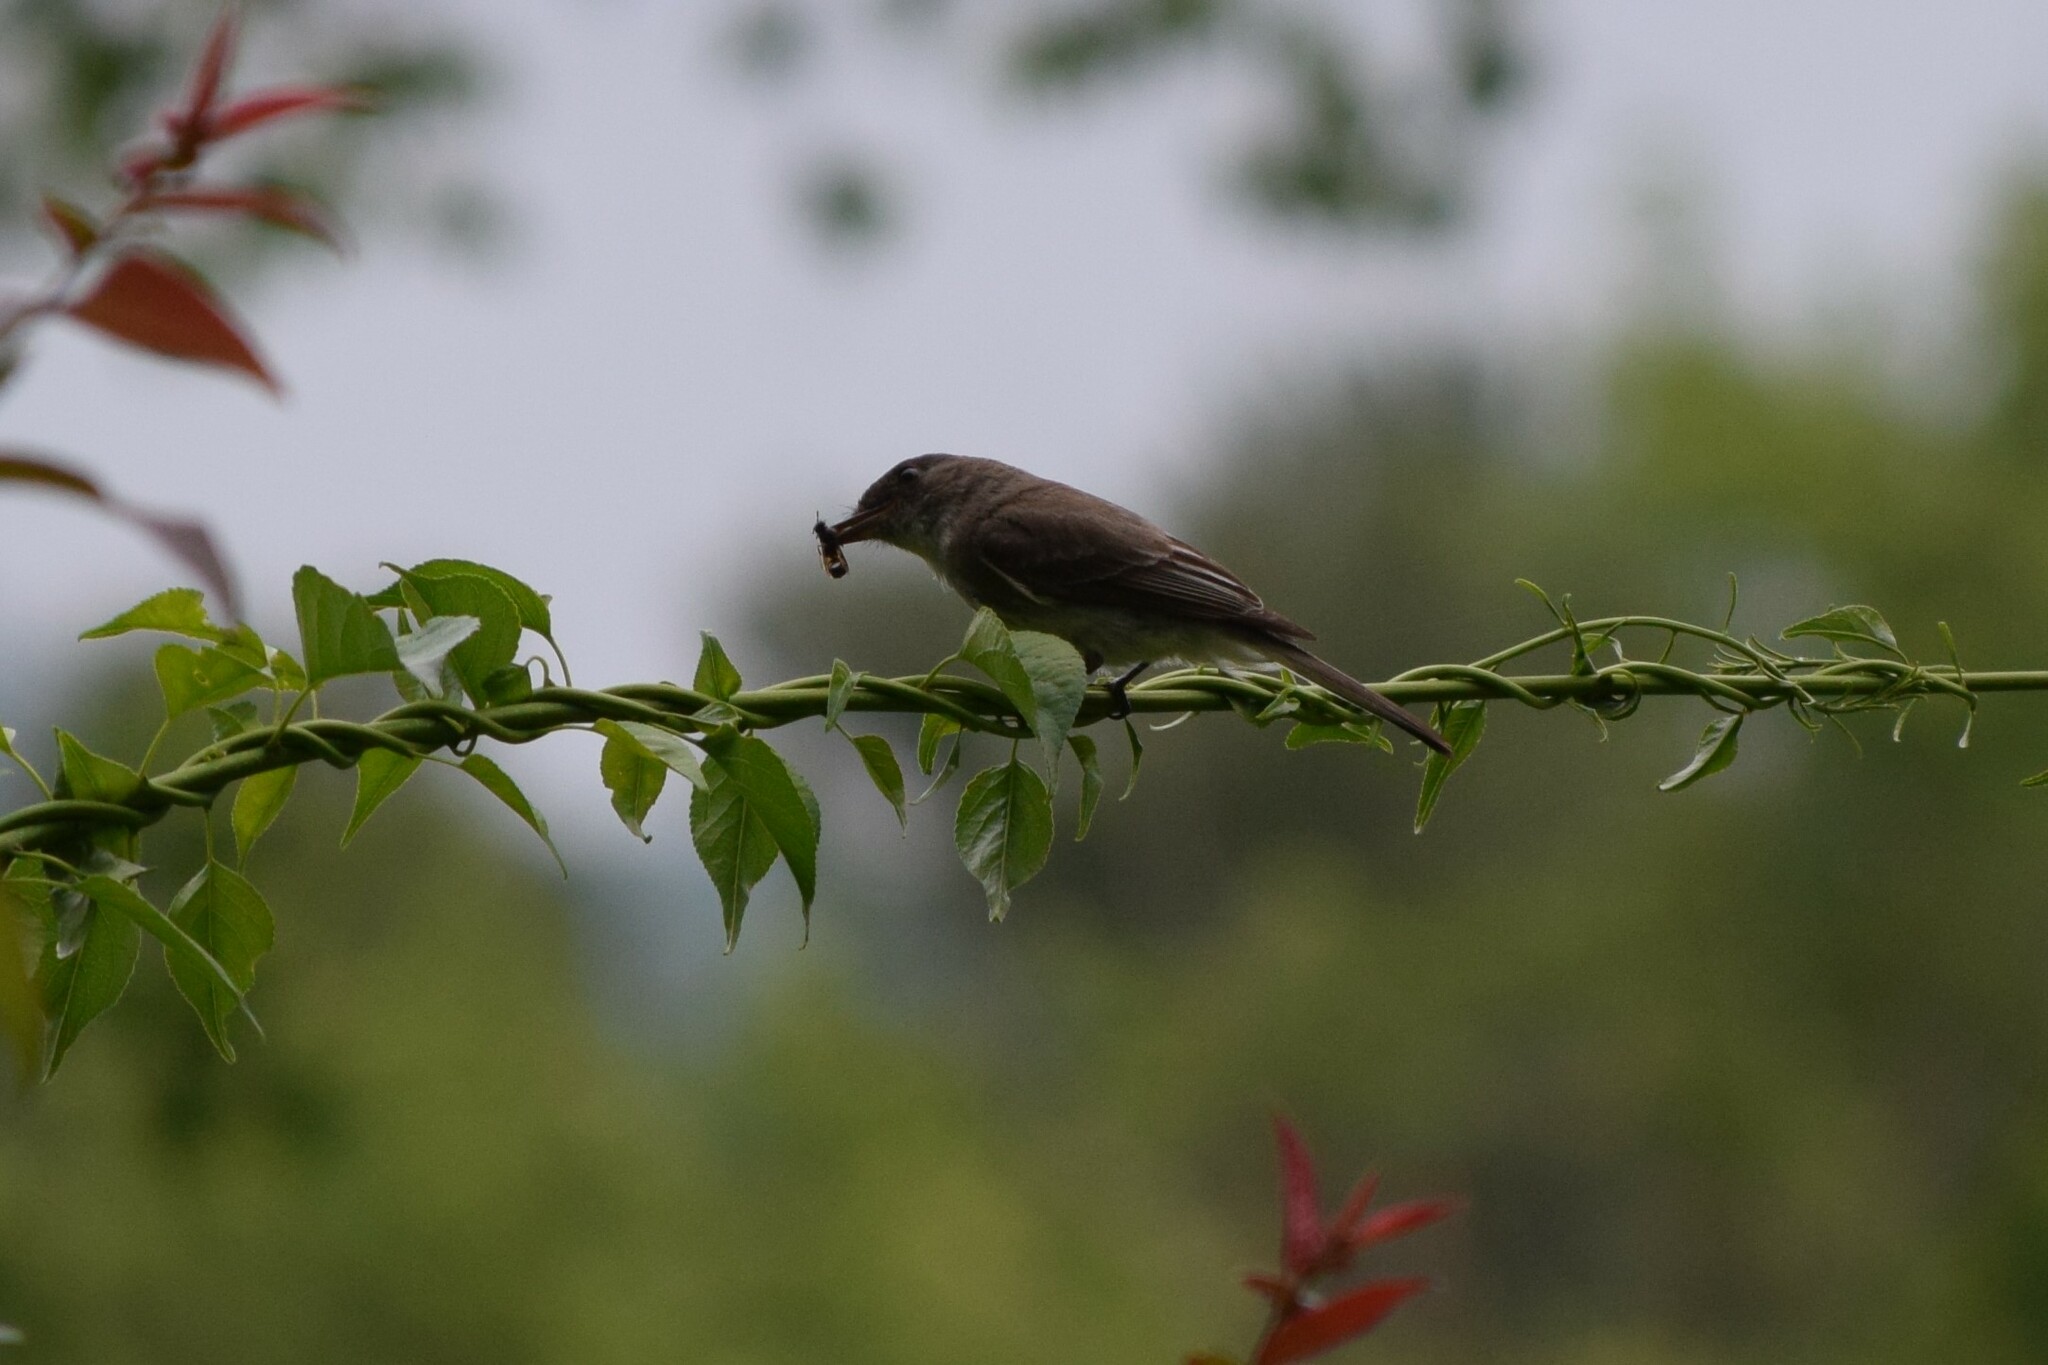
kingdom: Animalia
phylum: Chordata
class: Aves
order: Passeriformes
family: Tyrannidae
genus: Sayornis
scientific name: Sayornis phoebe
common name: Eastern phoebe
